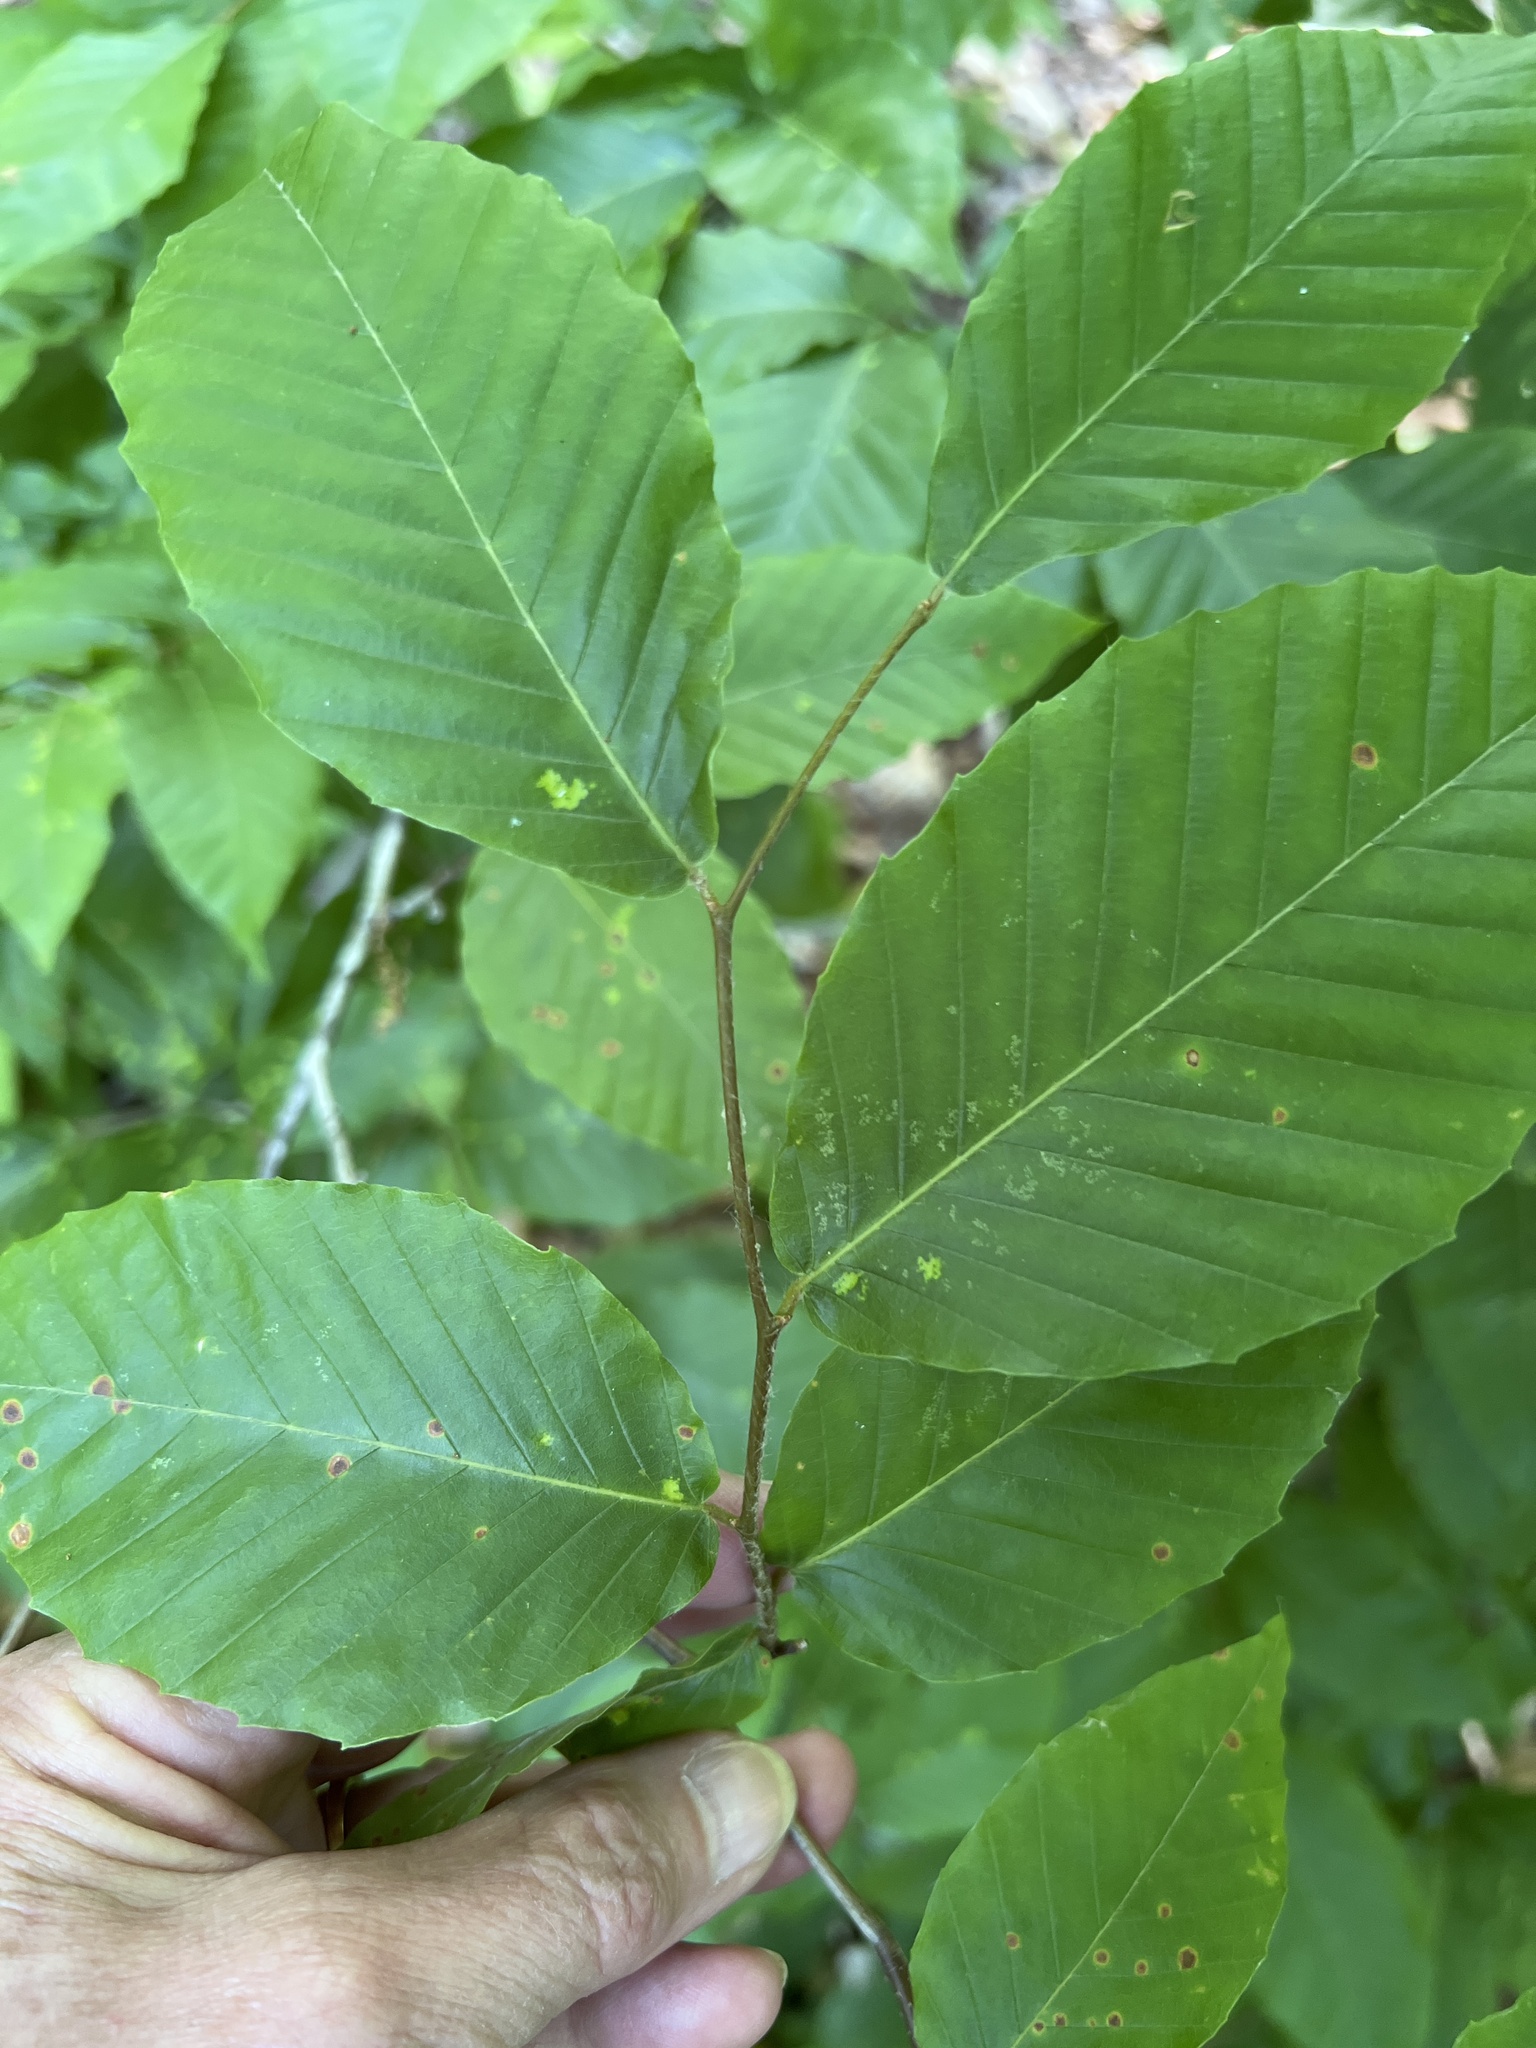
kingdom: Plantae
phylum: Tracheophyta
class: Magnoliopsida
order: Fagales
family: Fagaceae
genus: Fagus
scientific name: Fagus grandifolia
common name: American beech
